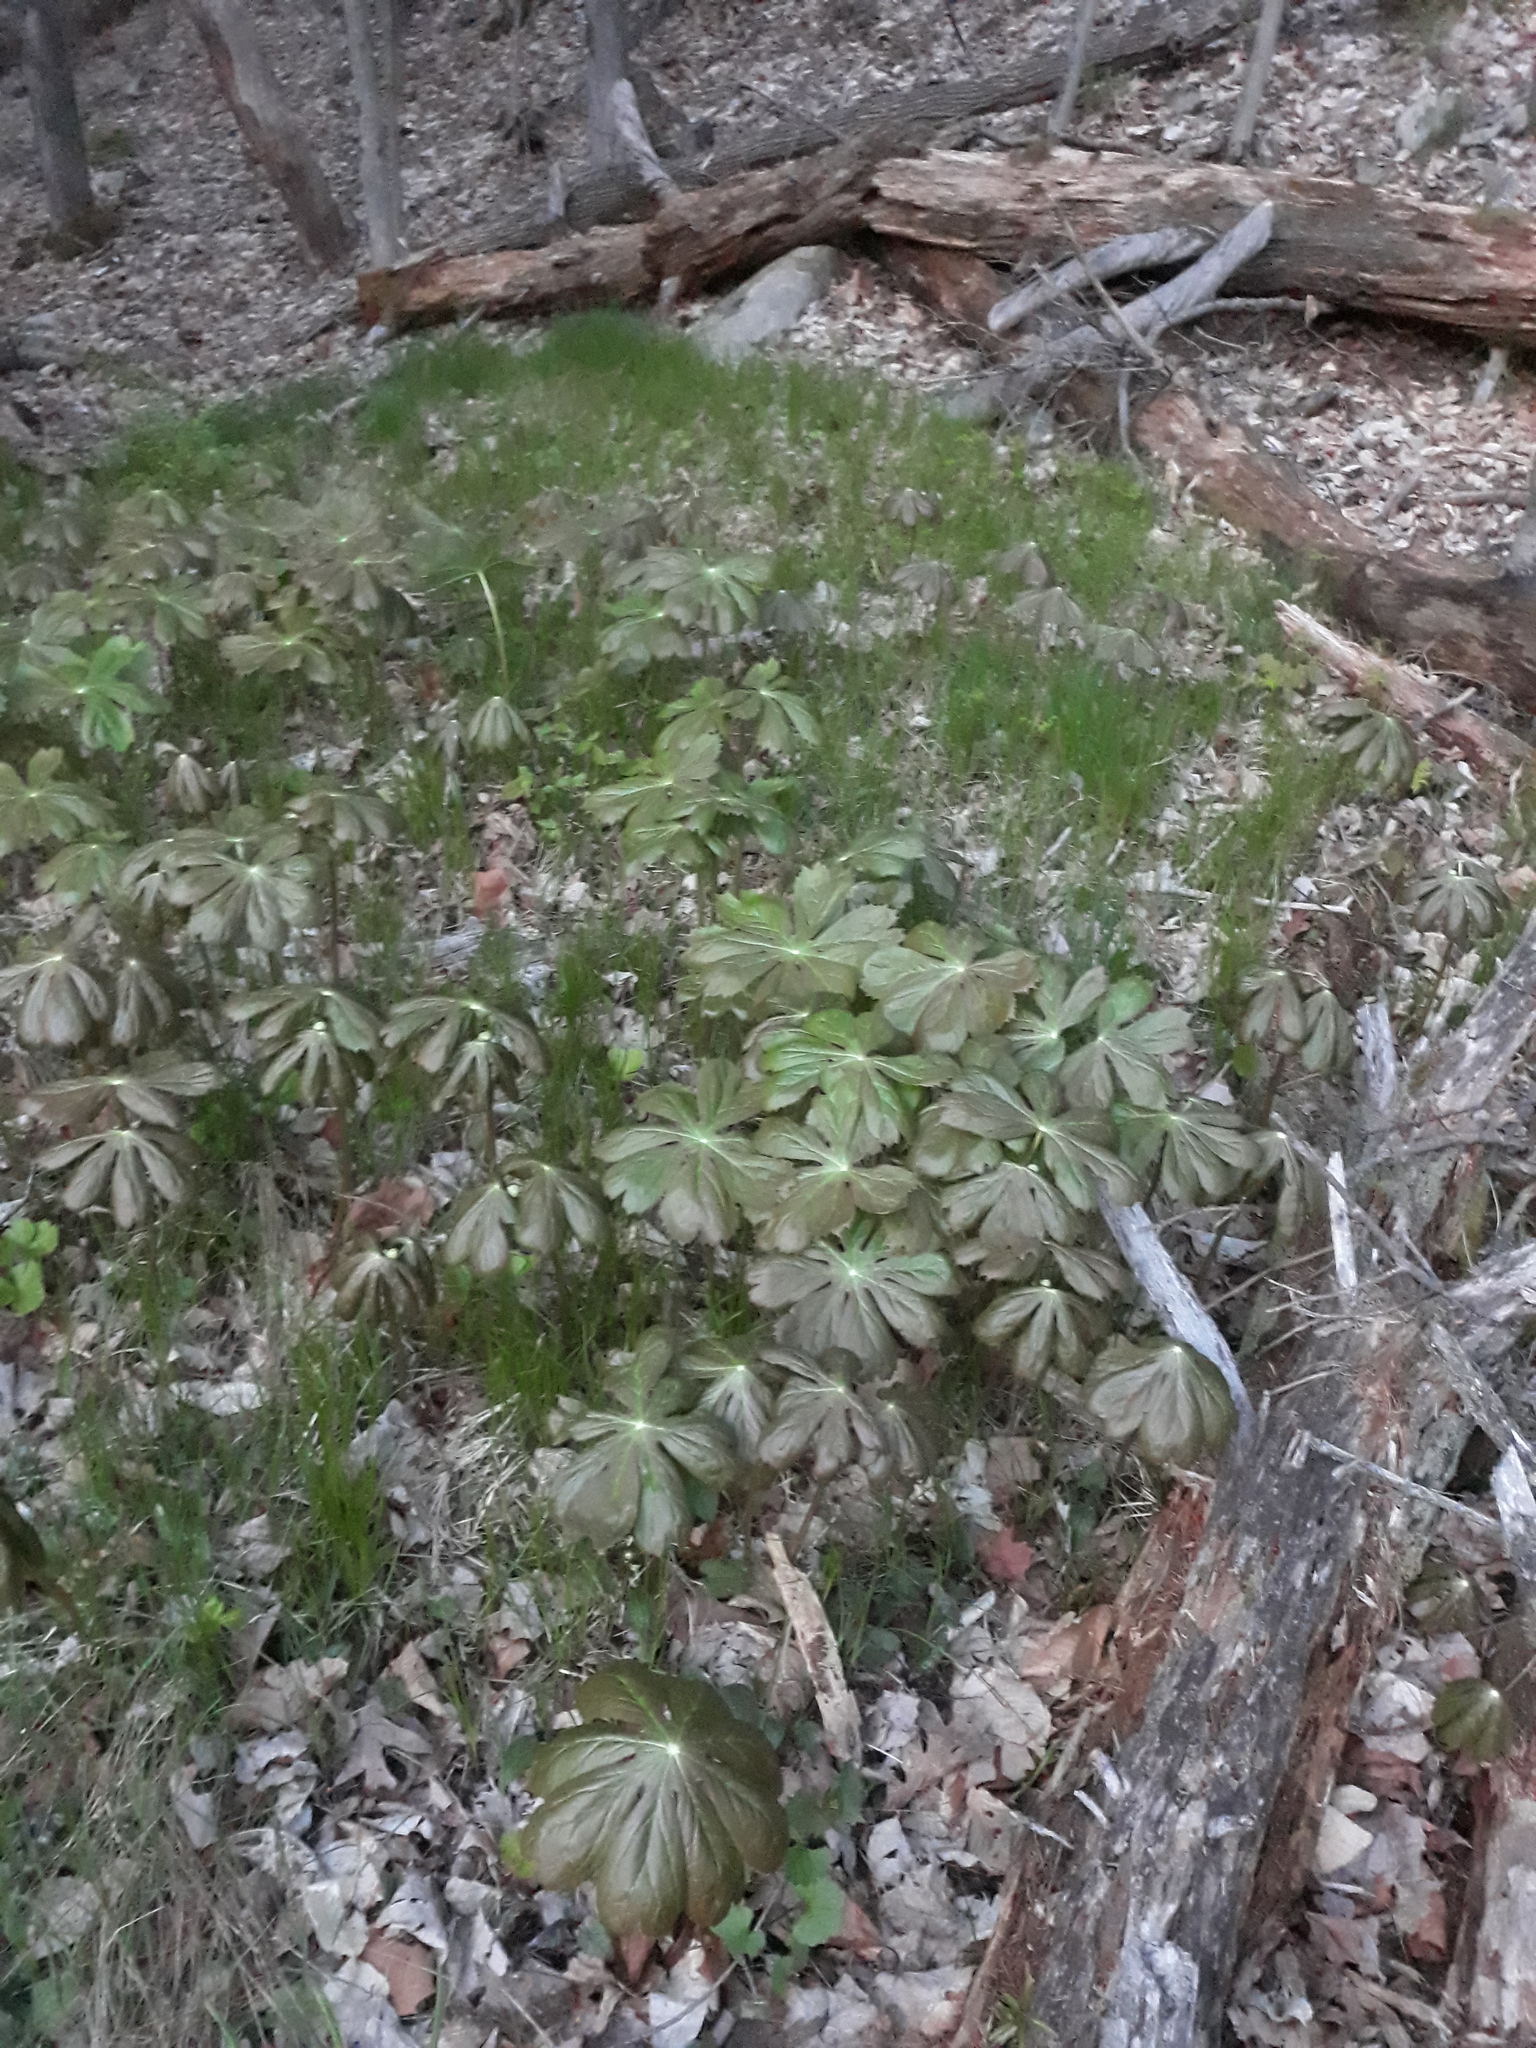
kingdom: Plantae
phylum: Tracheophyta
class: Magnoliopsida
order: Ranunculales
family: Berberidaceae
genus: Podophyllum
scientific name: Podophyllum peltatum
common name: Wild mandrake
